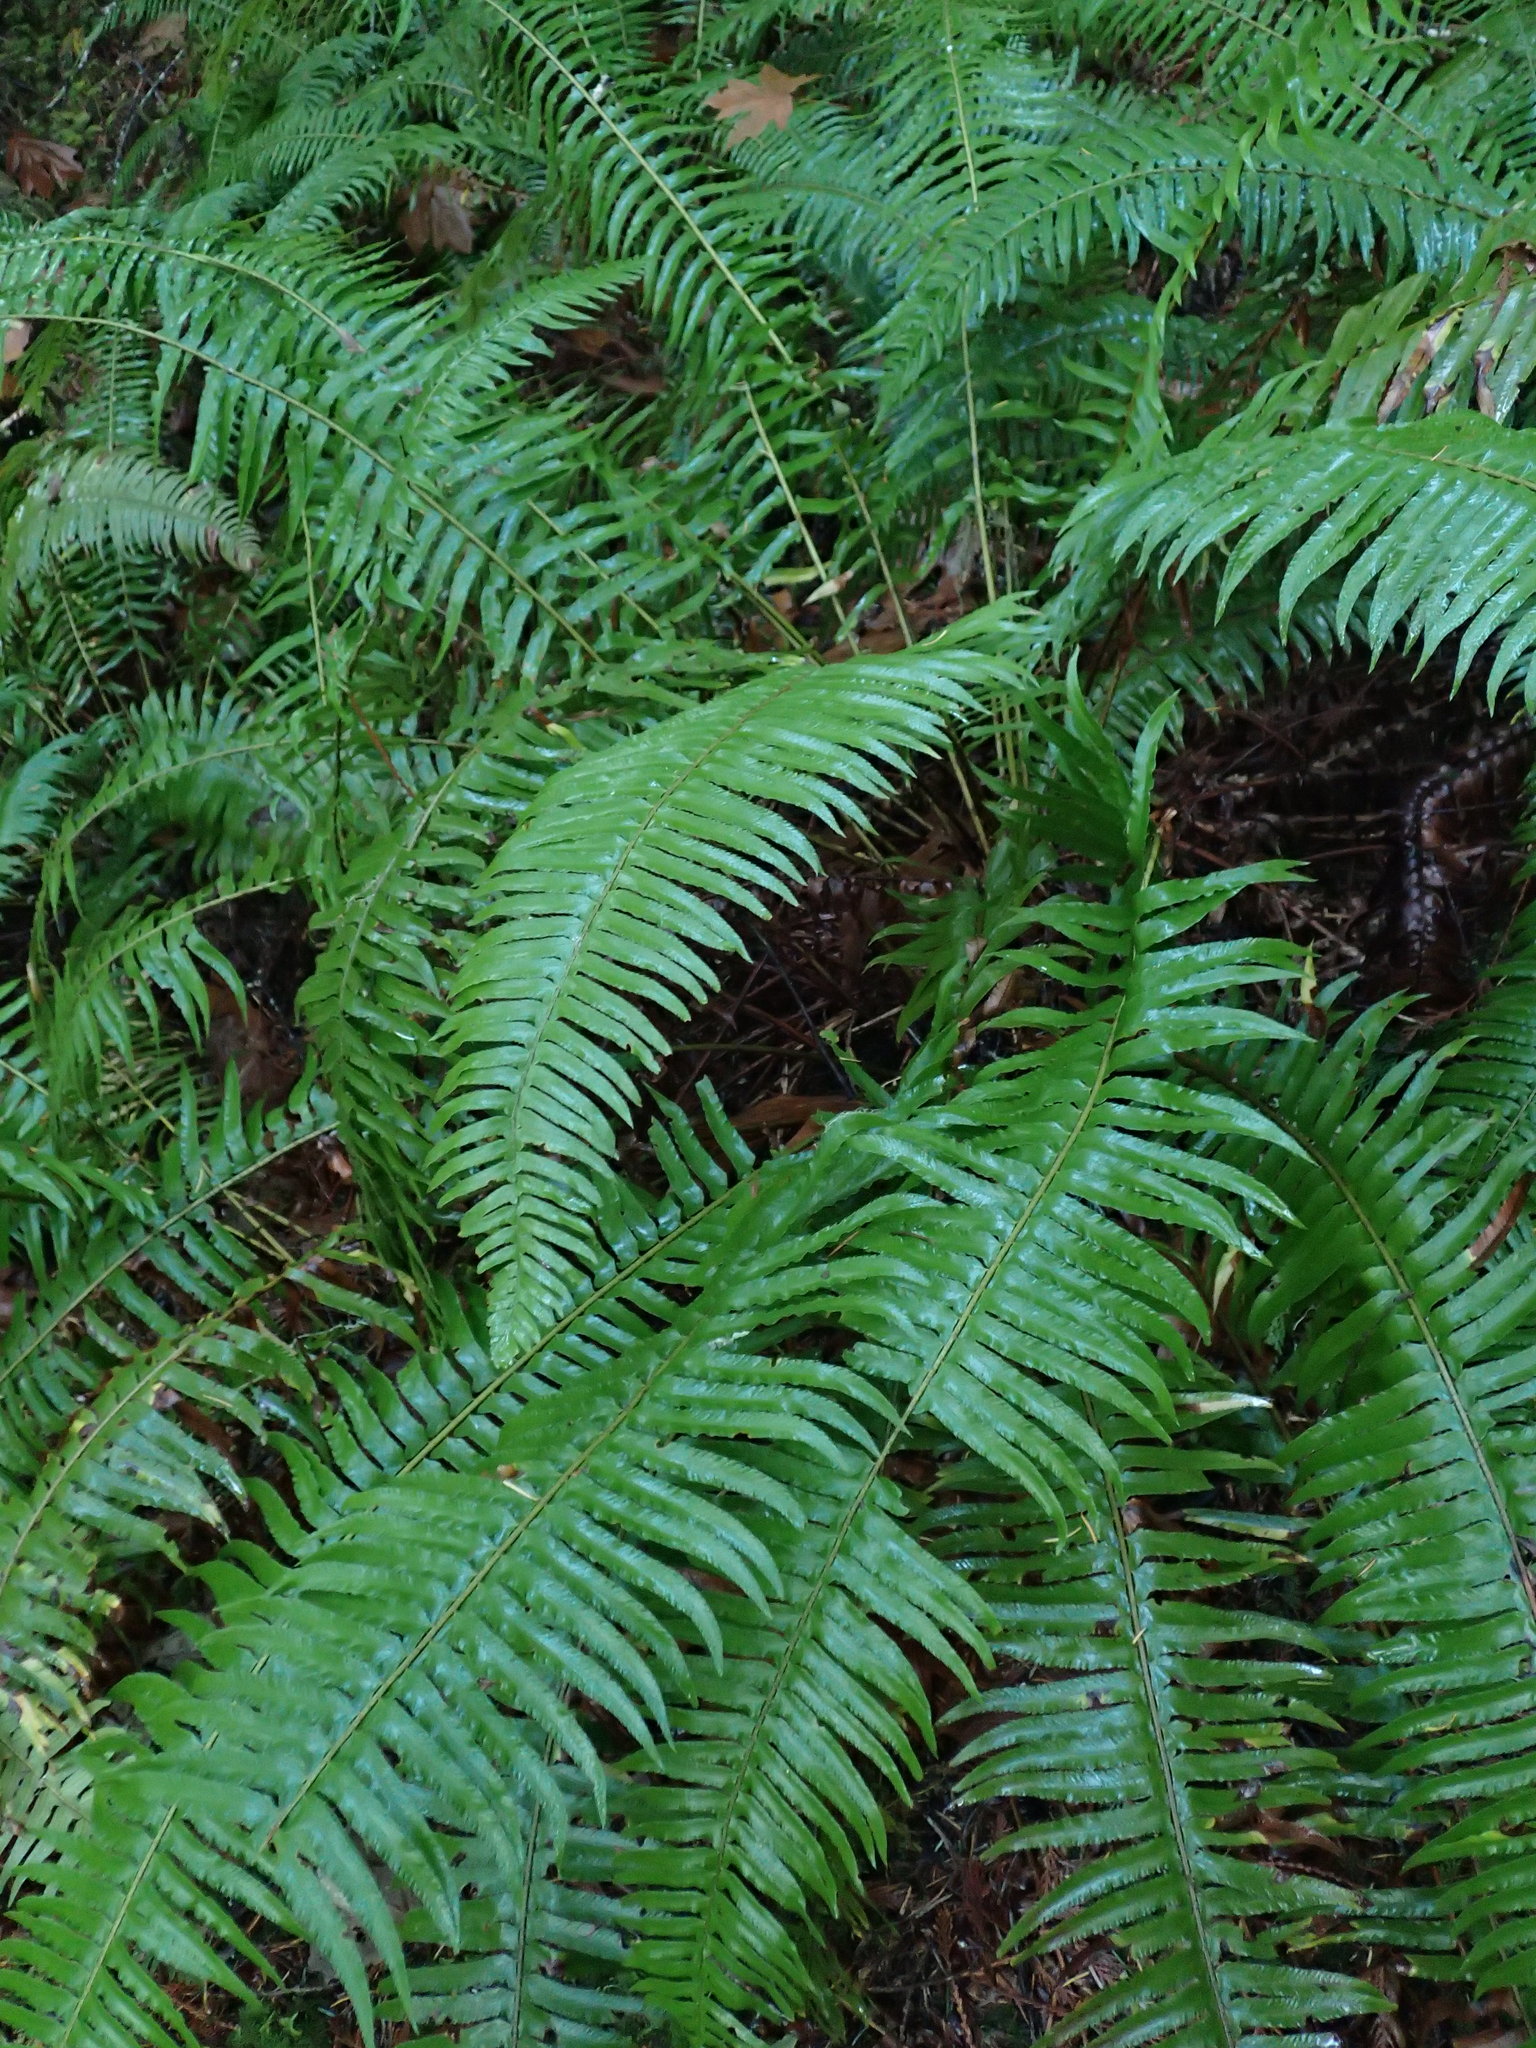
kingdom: Plantae
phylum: Tracheophyta
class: Polypodiopsida
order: Polypodiales
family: Dryopteridaceae
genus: Polystichum
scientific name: Polystichum munitum
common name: Western sword-fern
